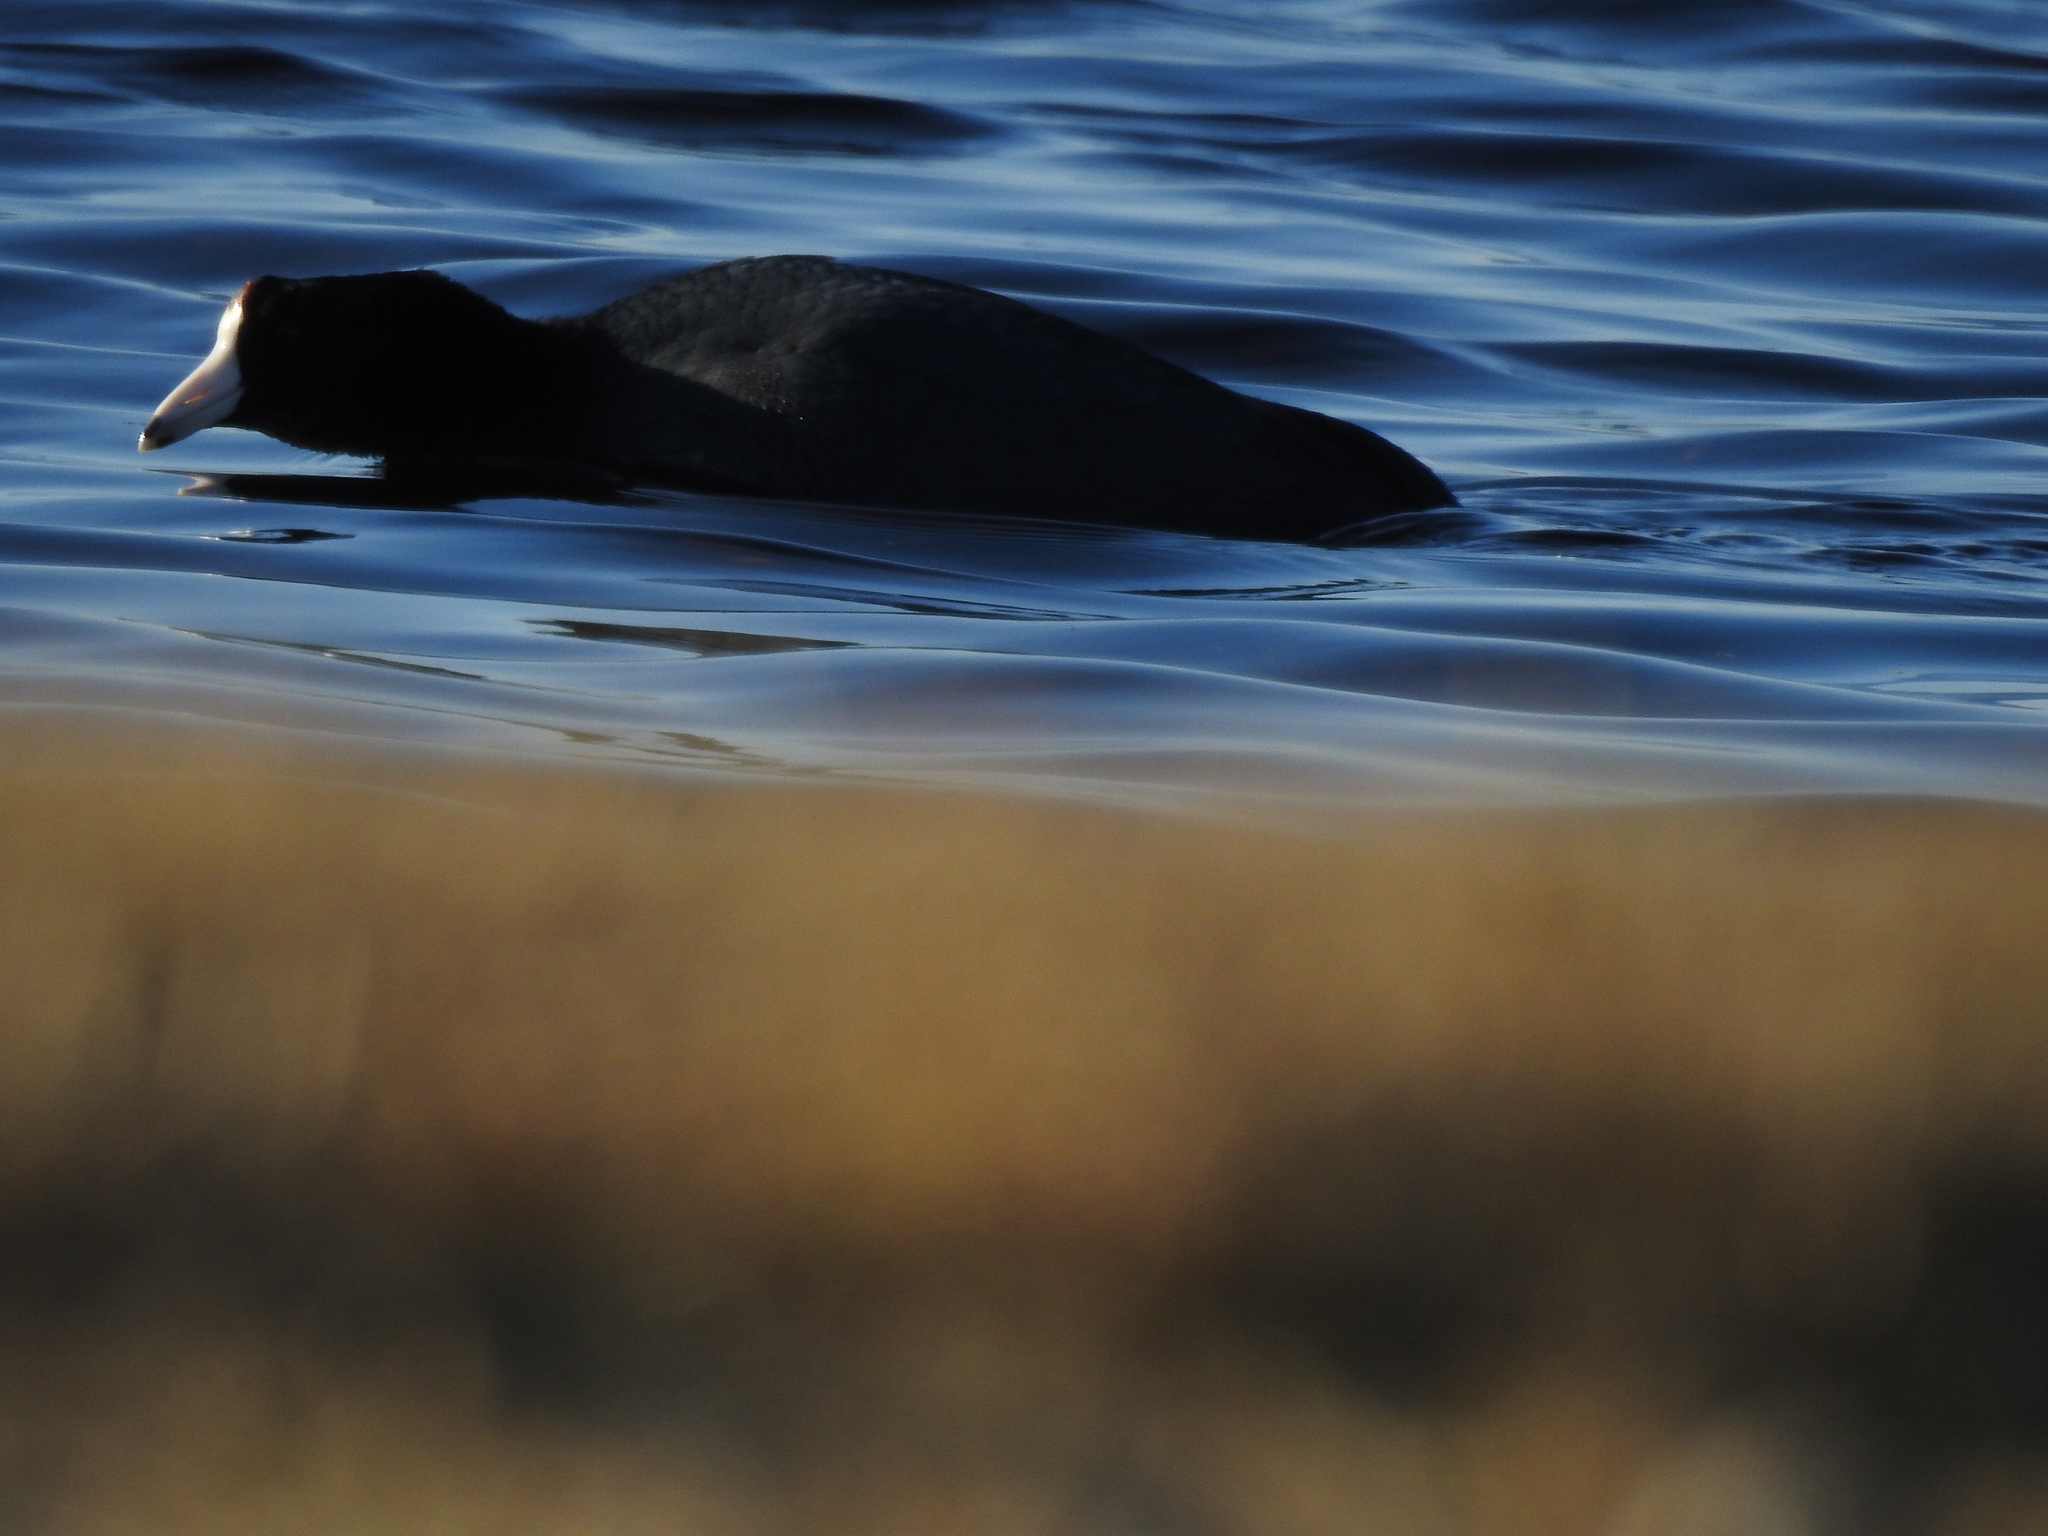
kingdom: Animalia
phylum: Chordata
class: Aves
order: Gruiformes
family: Rallidae
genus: Fulica
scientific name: Fulica americana
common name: American coot
